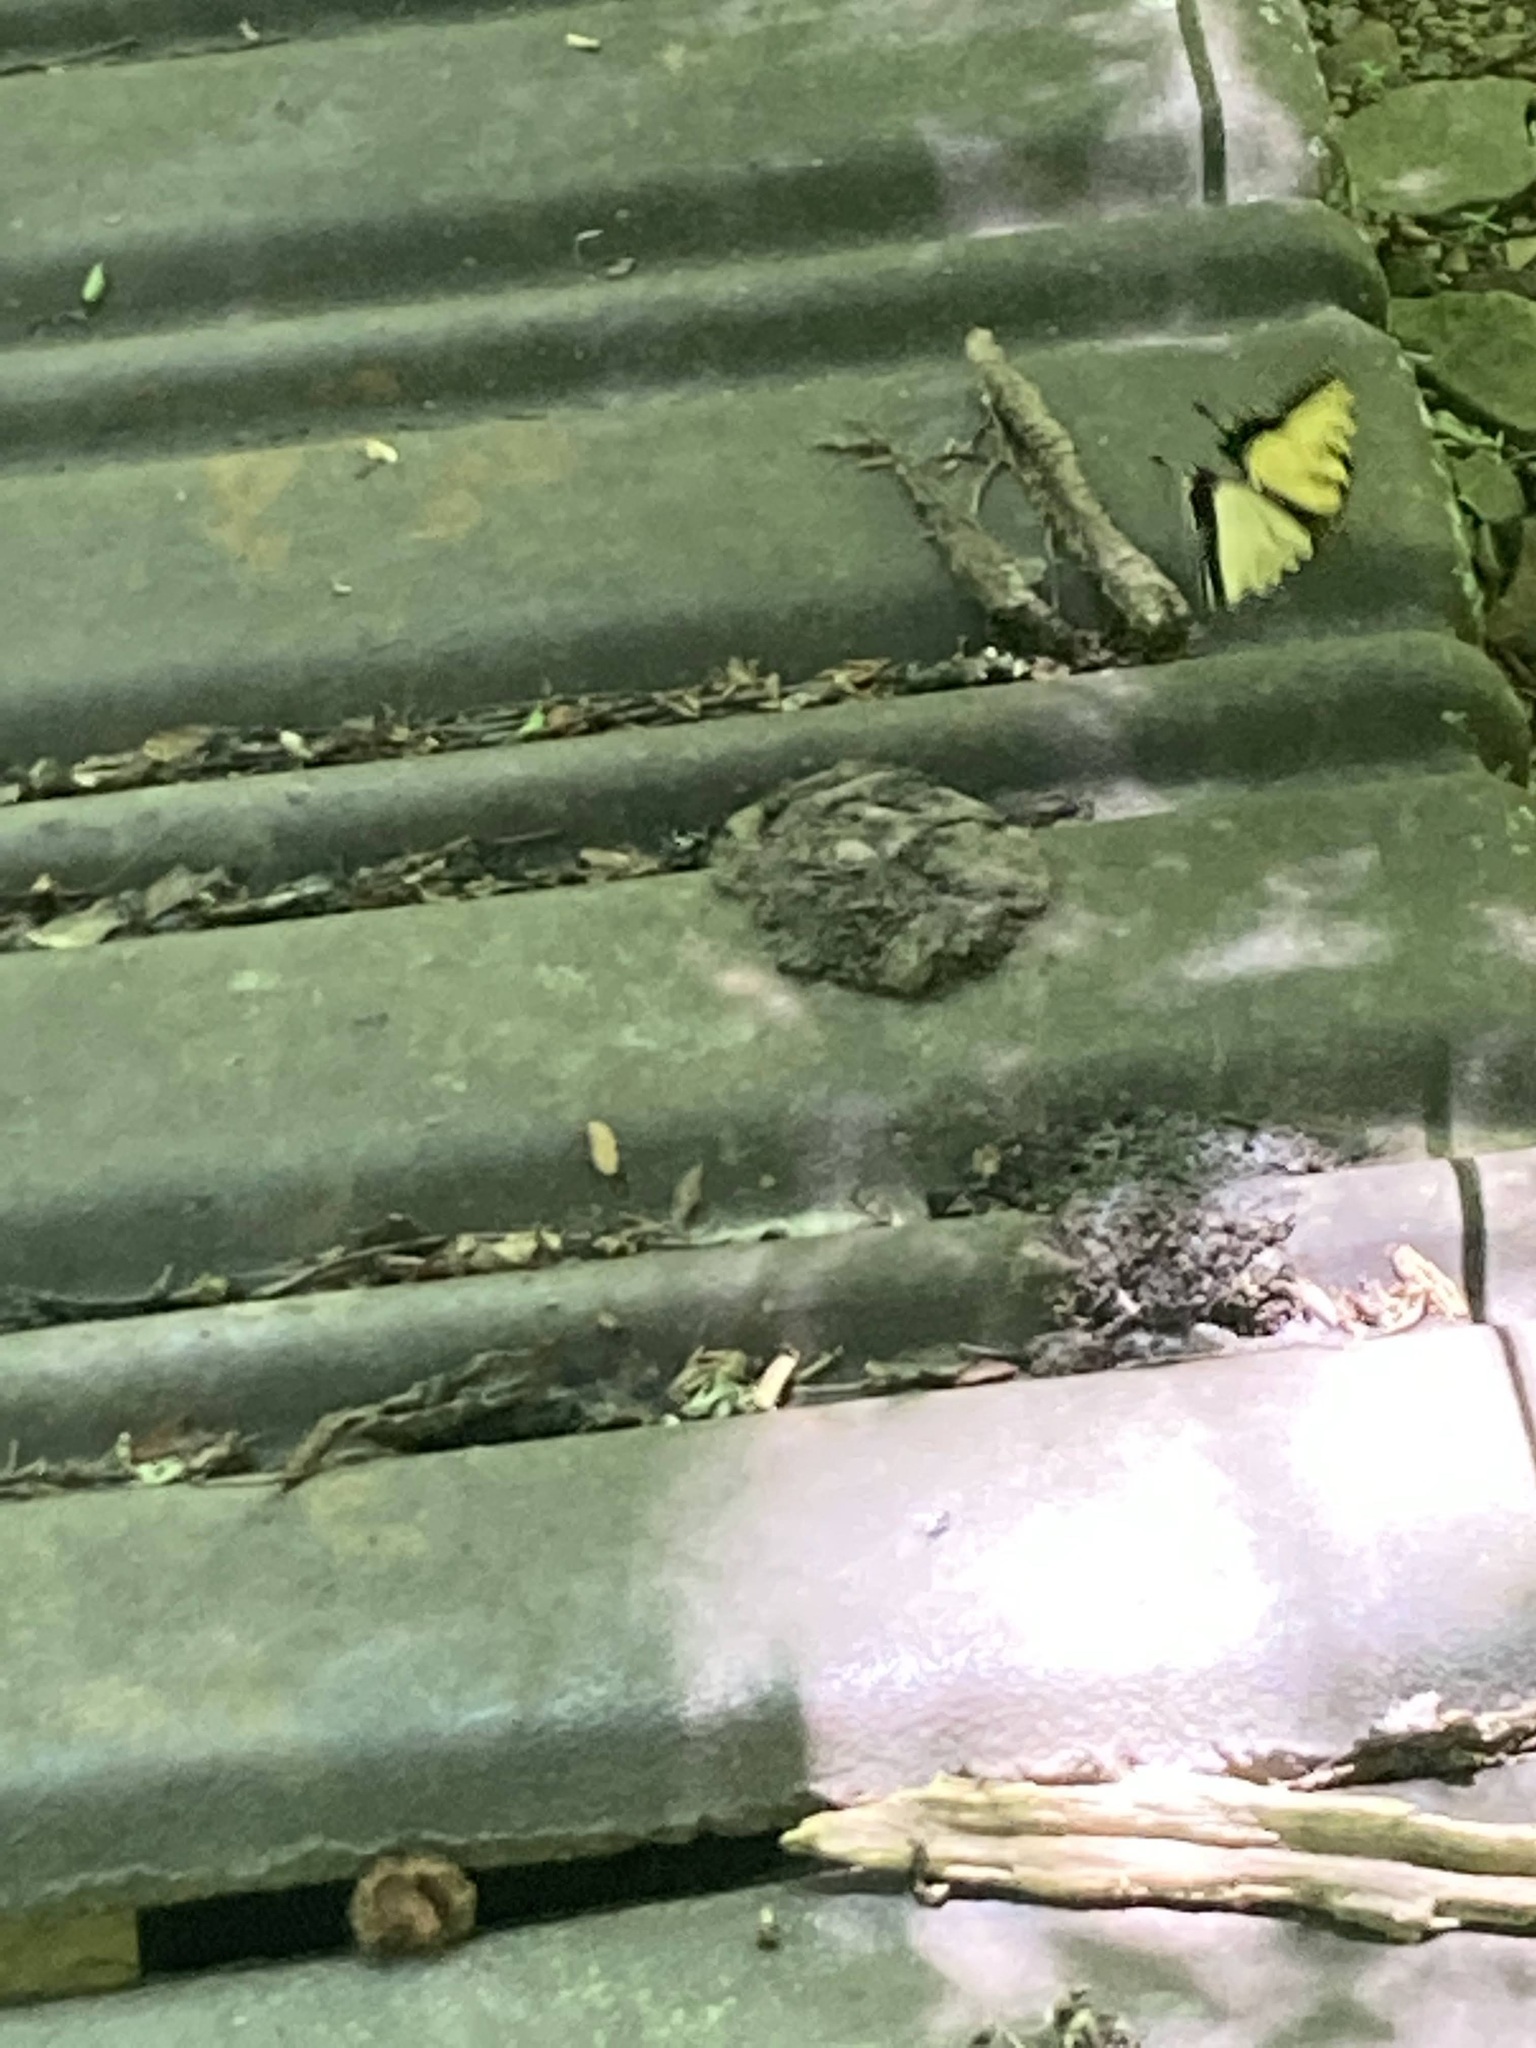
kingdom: Animalia
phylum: Arthropoda
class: Insecta
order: Lepidoptera
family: Papilionidae
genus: Papilio
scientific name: Papilio glaucus
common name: Tiger swallowtail
